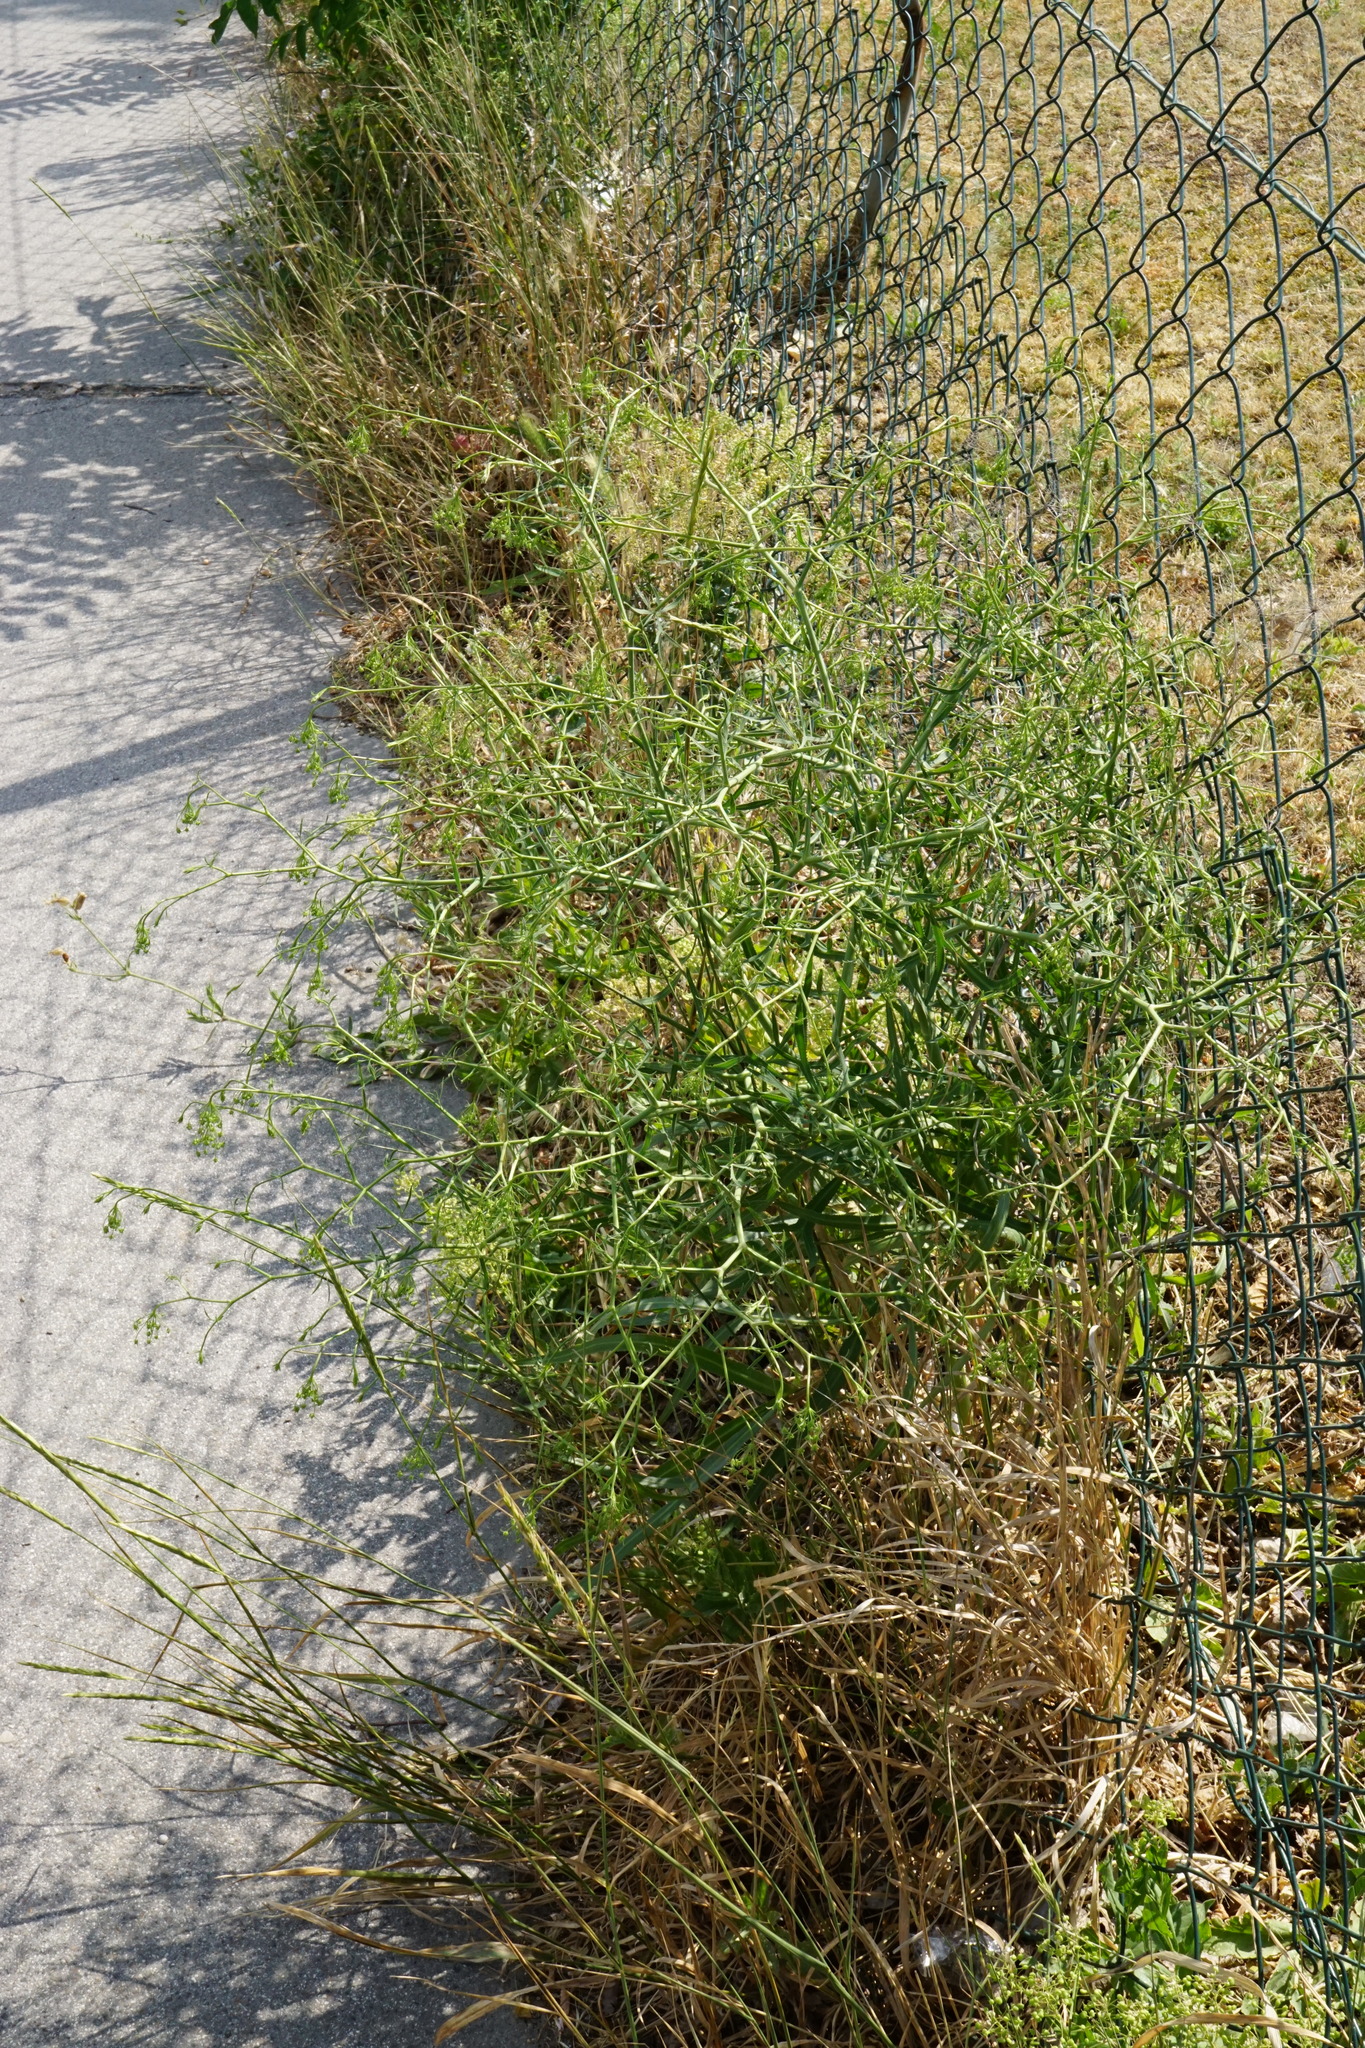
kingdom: Plantae
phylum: Tracheophyta
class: Magnoliopsida
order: Apiales
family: Apiaceae
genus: Falcaria
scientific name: Falcaria vulgaris
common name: Longleaf
